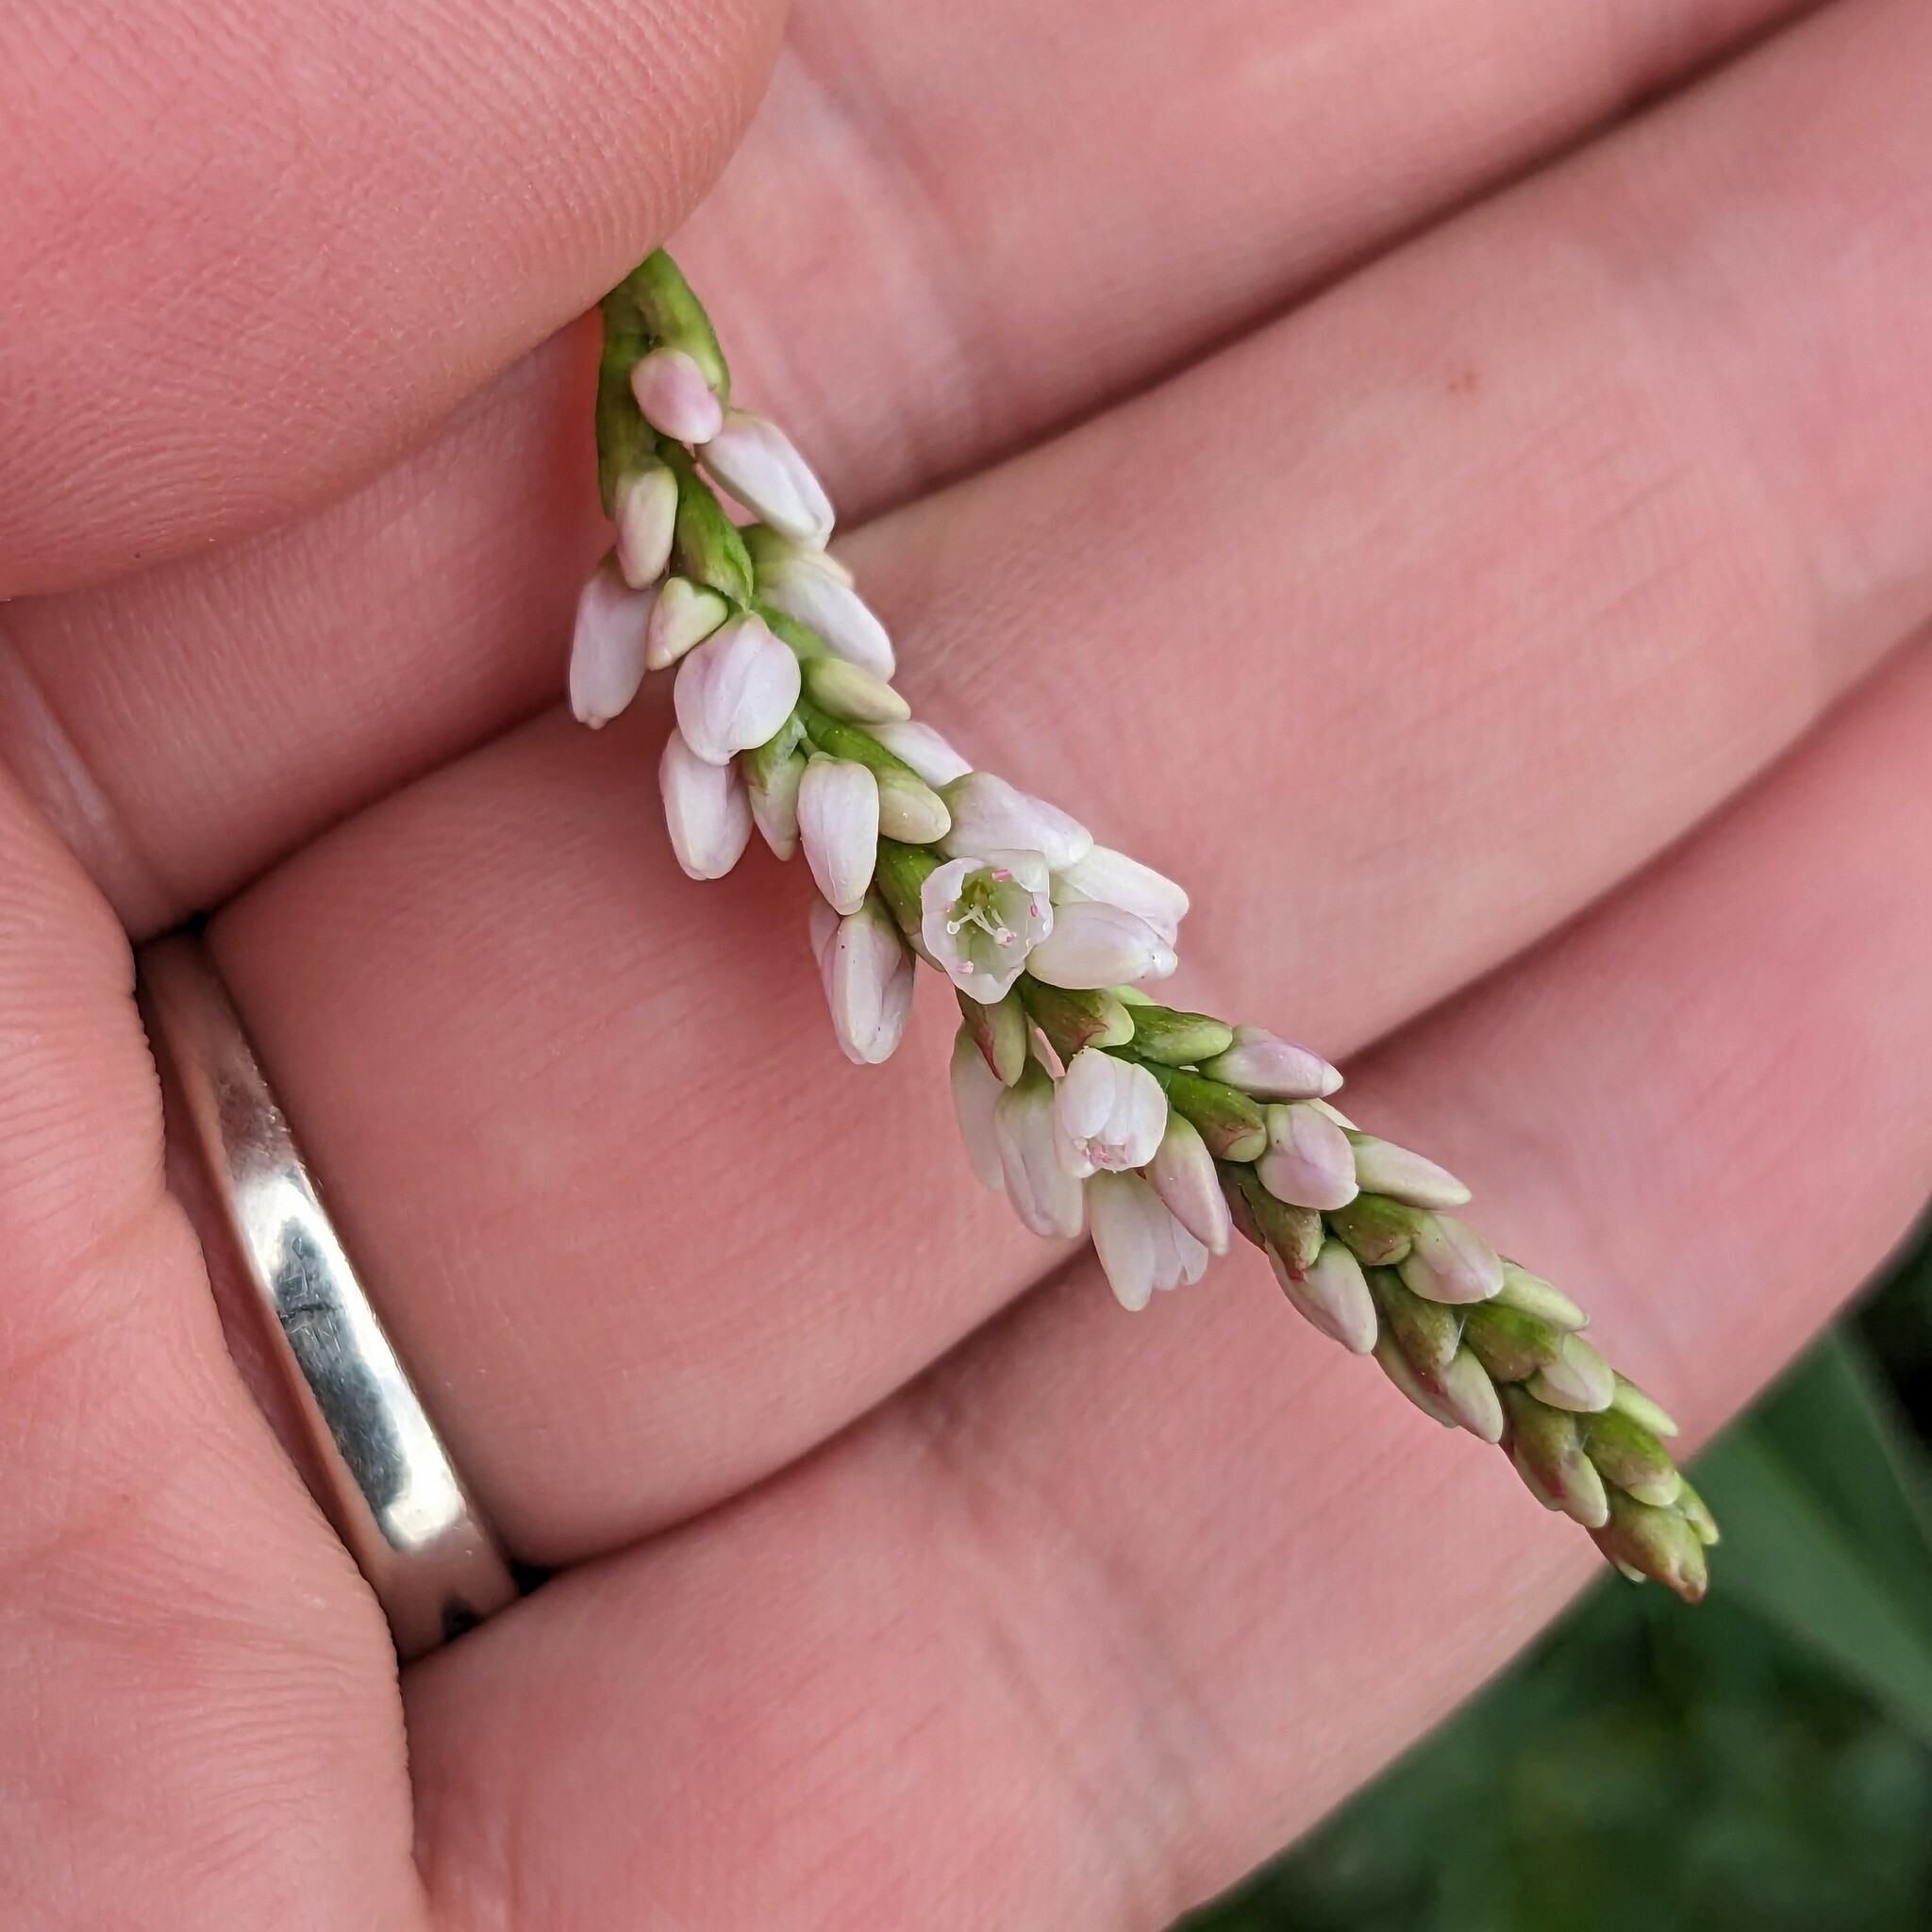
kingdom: Plantae
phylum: Tracheophyta
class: Magnoliopsida
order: Caryophyllales
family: Polygonaceae
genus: Persicaria
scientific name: Persicaria pensylvanica
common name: Pinkweed
